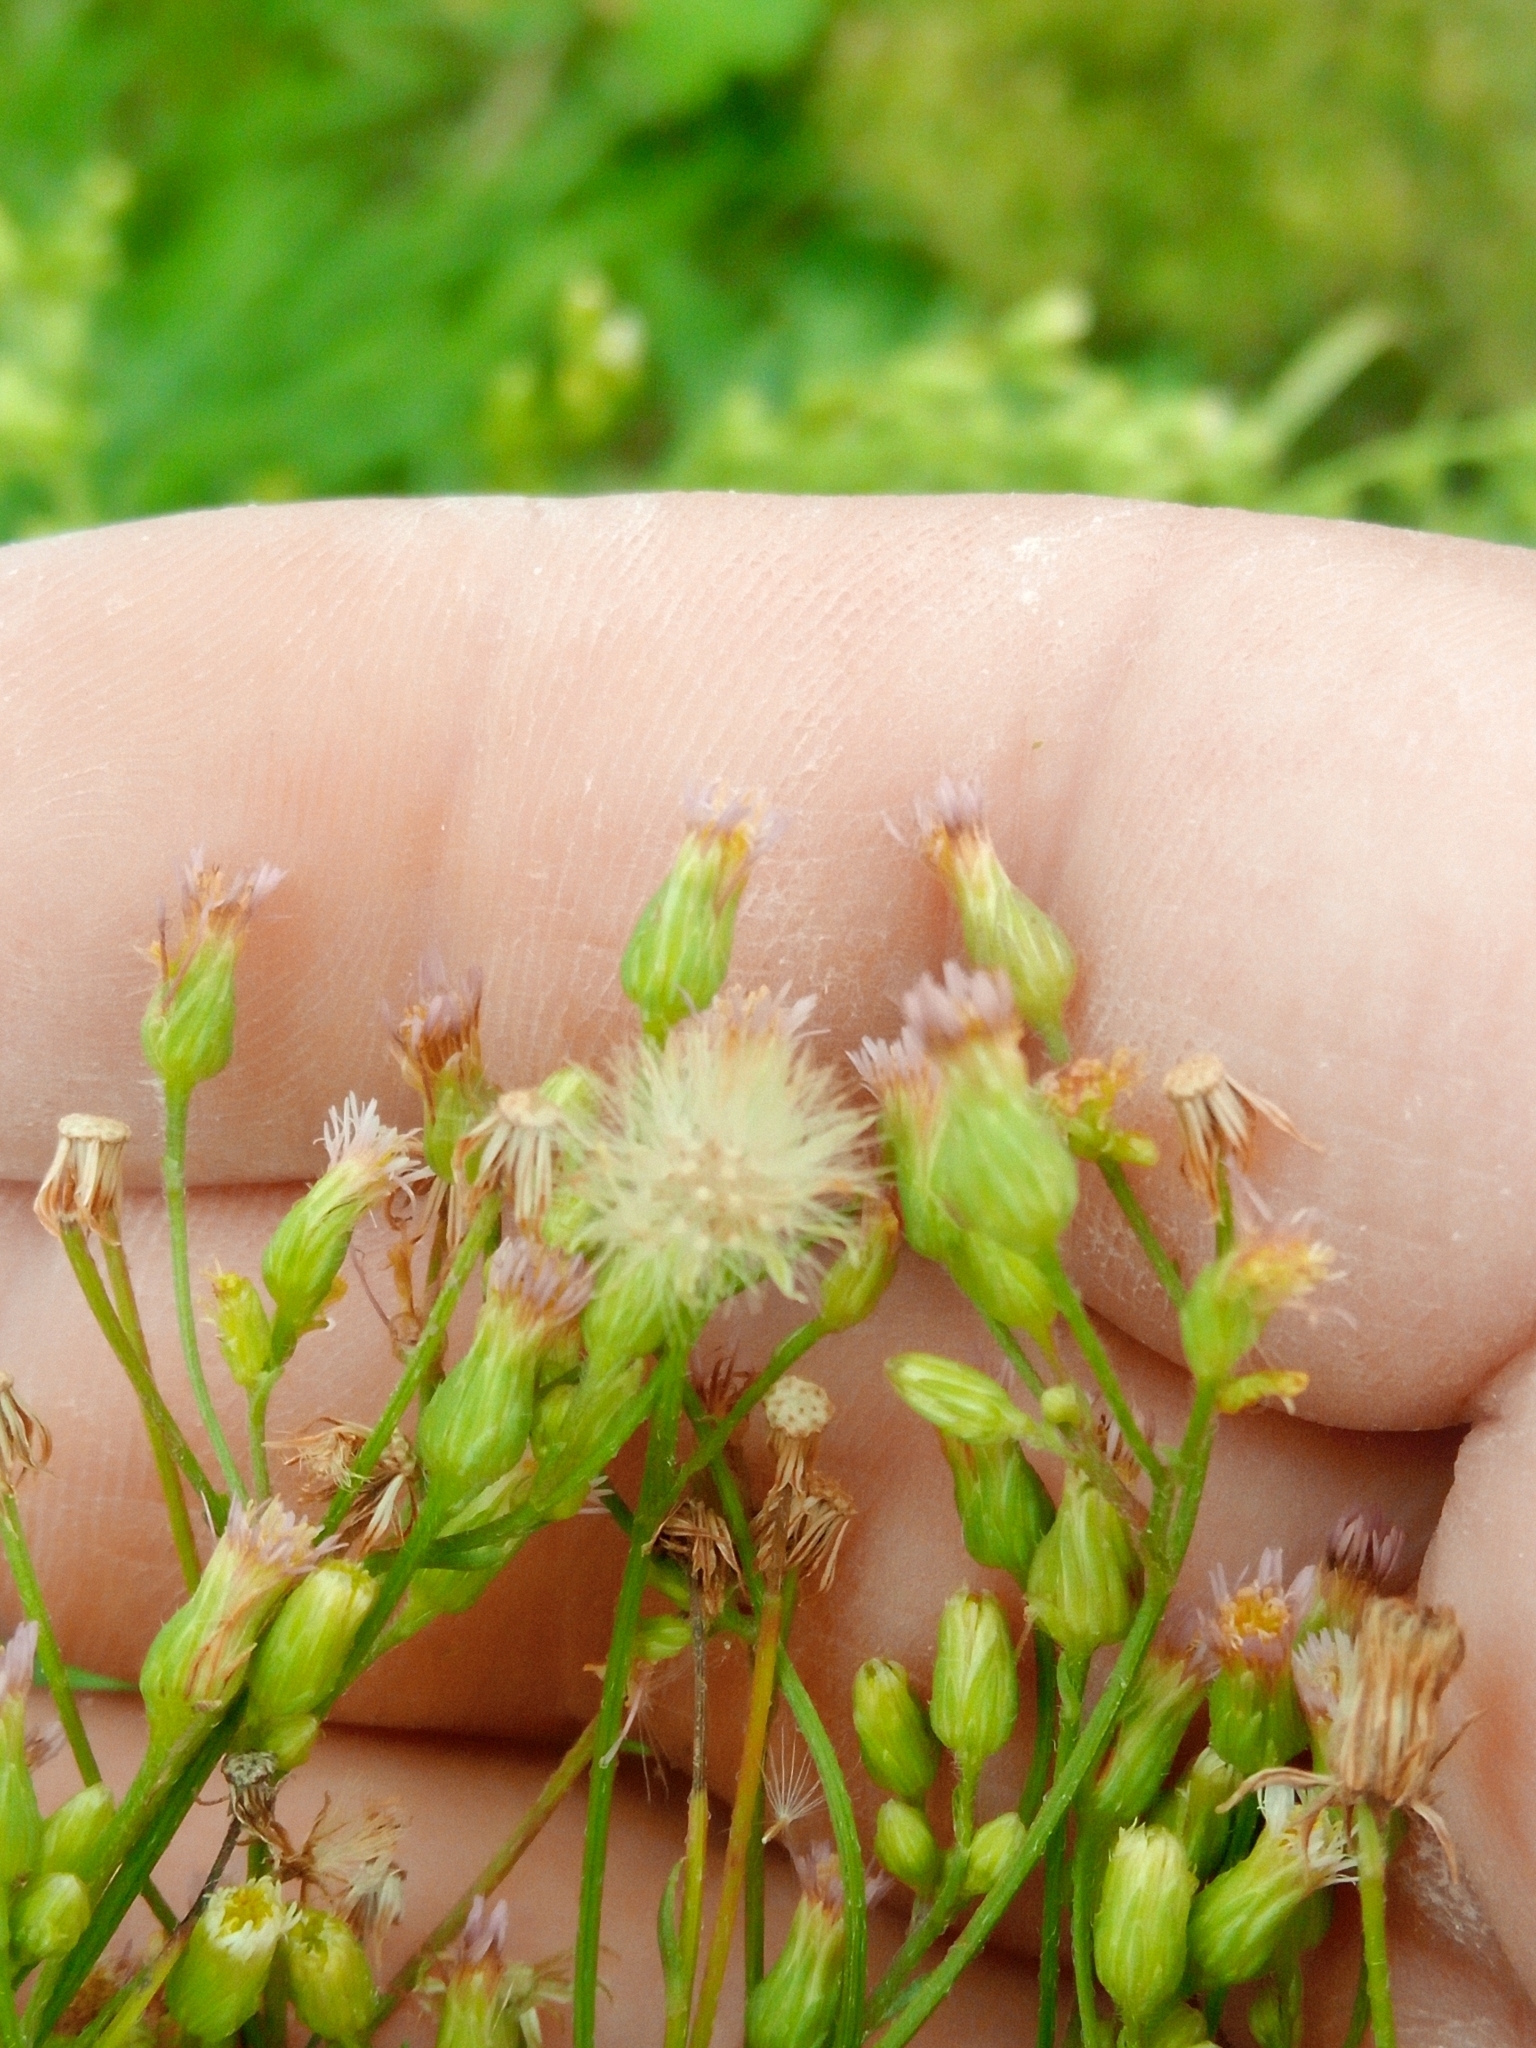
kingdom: Plantae
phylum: Tracheophyta
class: Magnoliopsida
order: Asterales
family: Asteraceae
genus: Erigeron
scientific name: Erigeron canadensis
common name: Canadian fleabane
